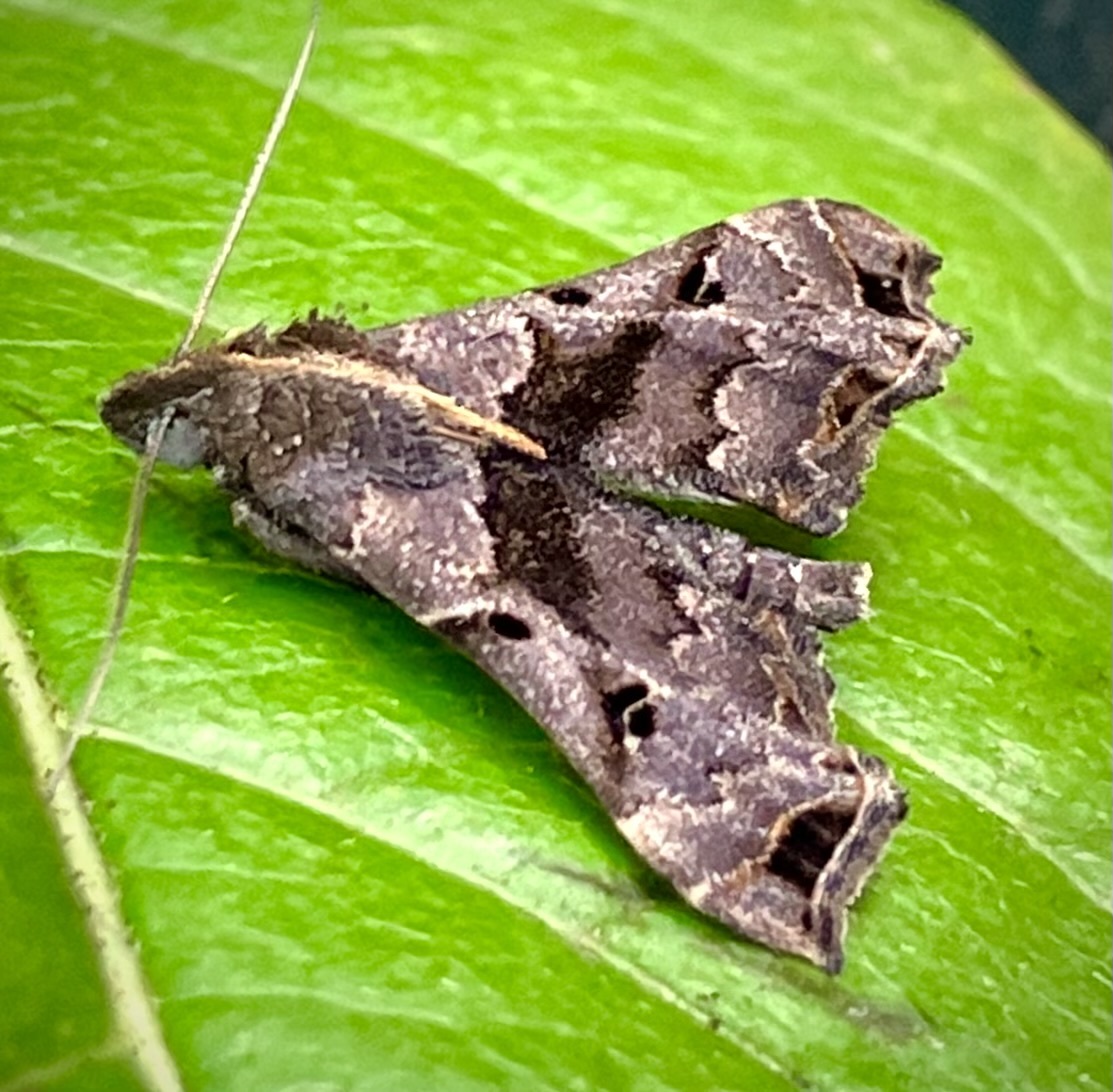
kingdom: Animalia
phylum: Arthropoda
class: Insecta
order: Lepidoptera
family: Erebidae
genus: Palthis
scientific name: Palthis asopialis
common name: Faint-spotted palthis moth
